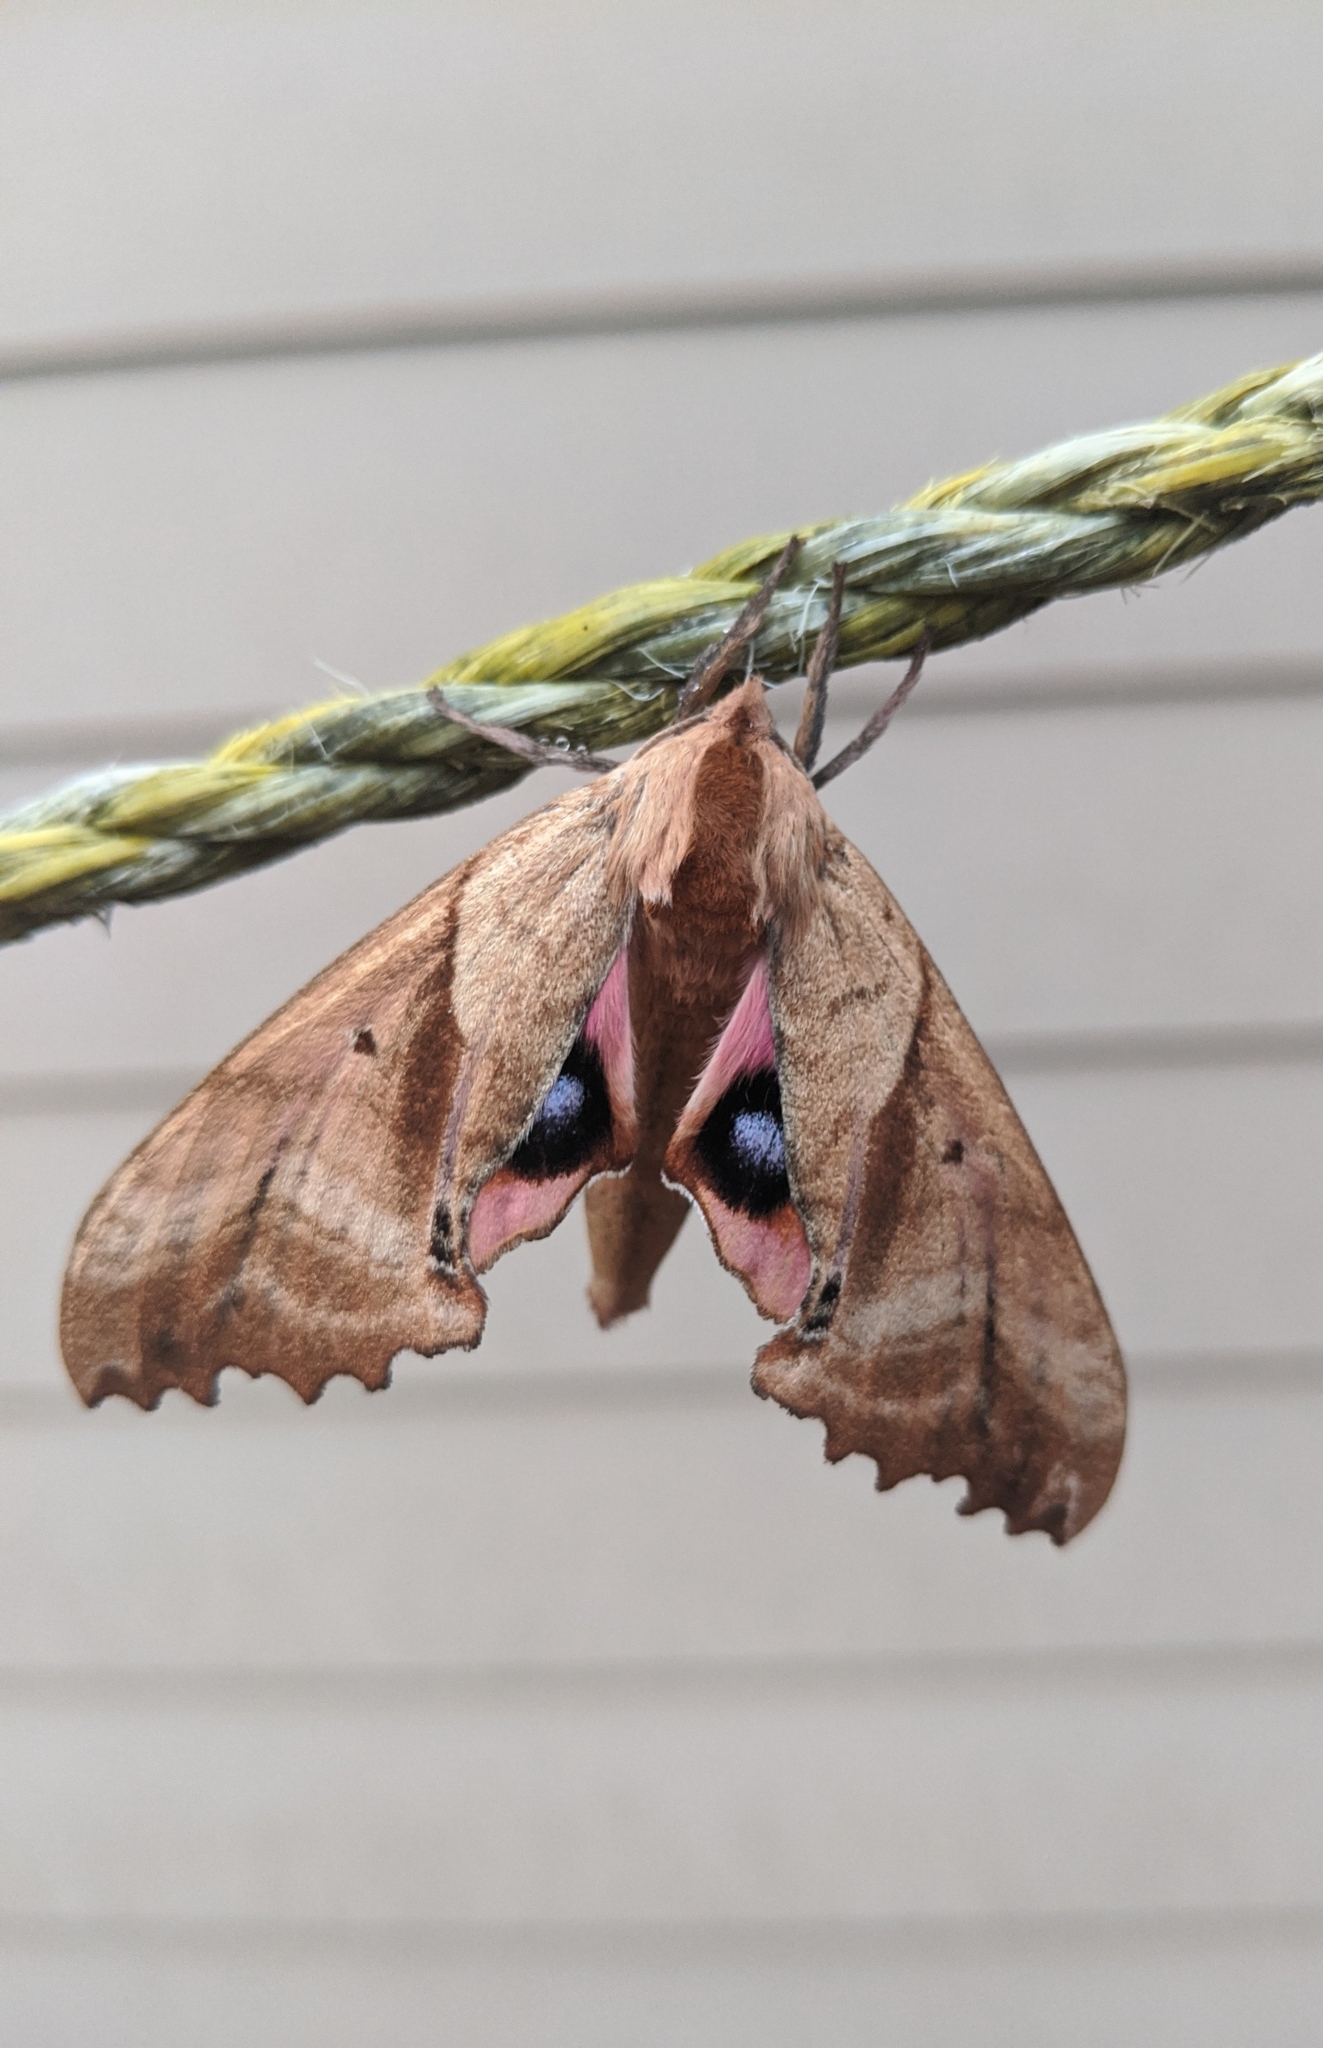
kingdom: Animalia
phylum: Arthropoda
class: Insecta
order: Lepidoptera
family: Sphingidae
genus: Paonias
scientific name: Paonias excaecata
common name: Blind-eyed sphinx
